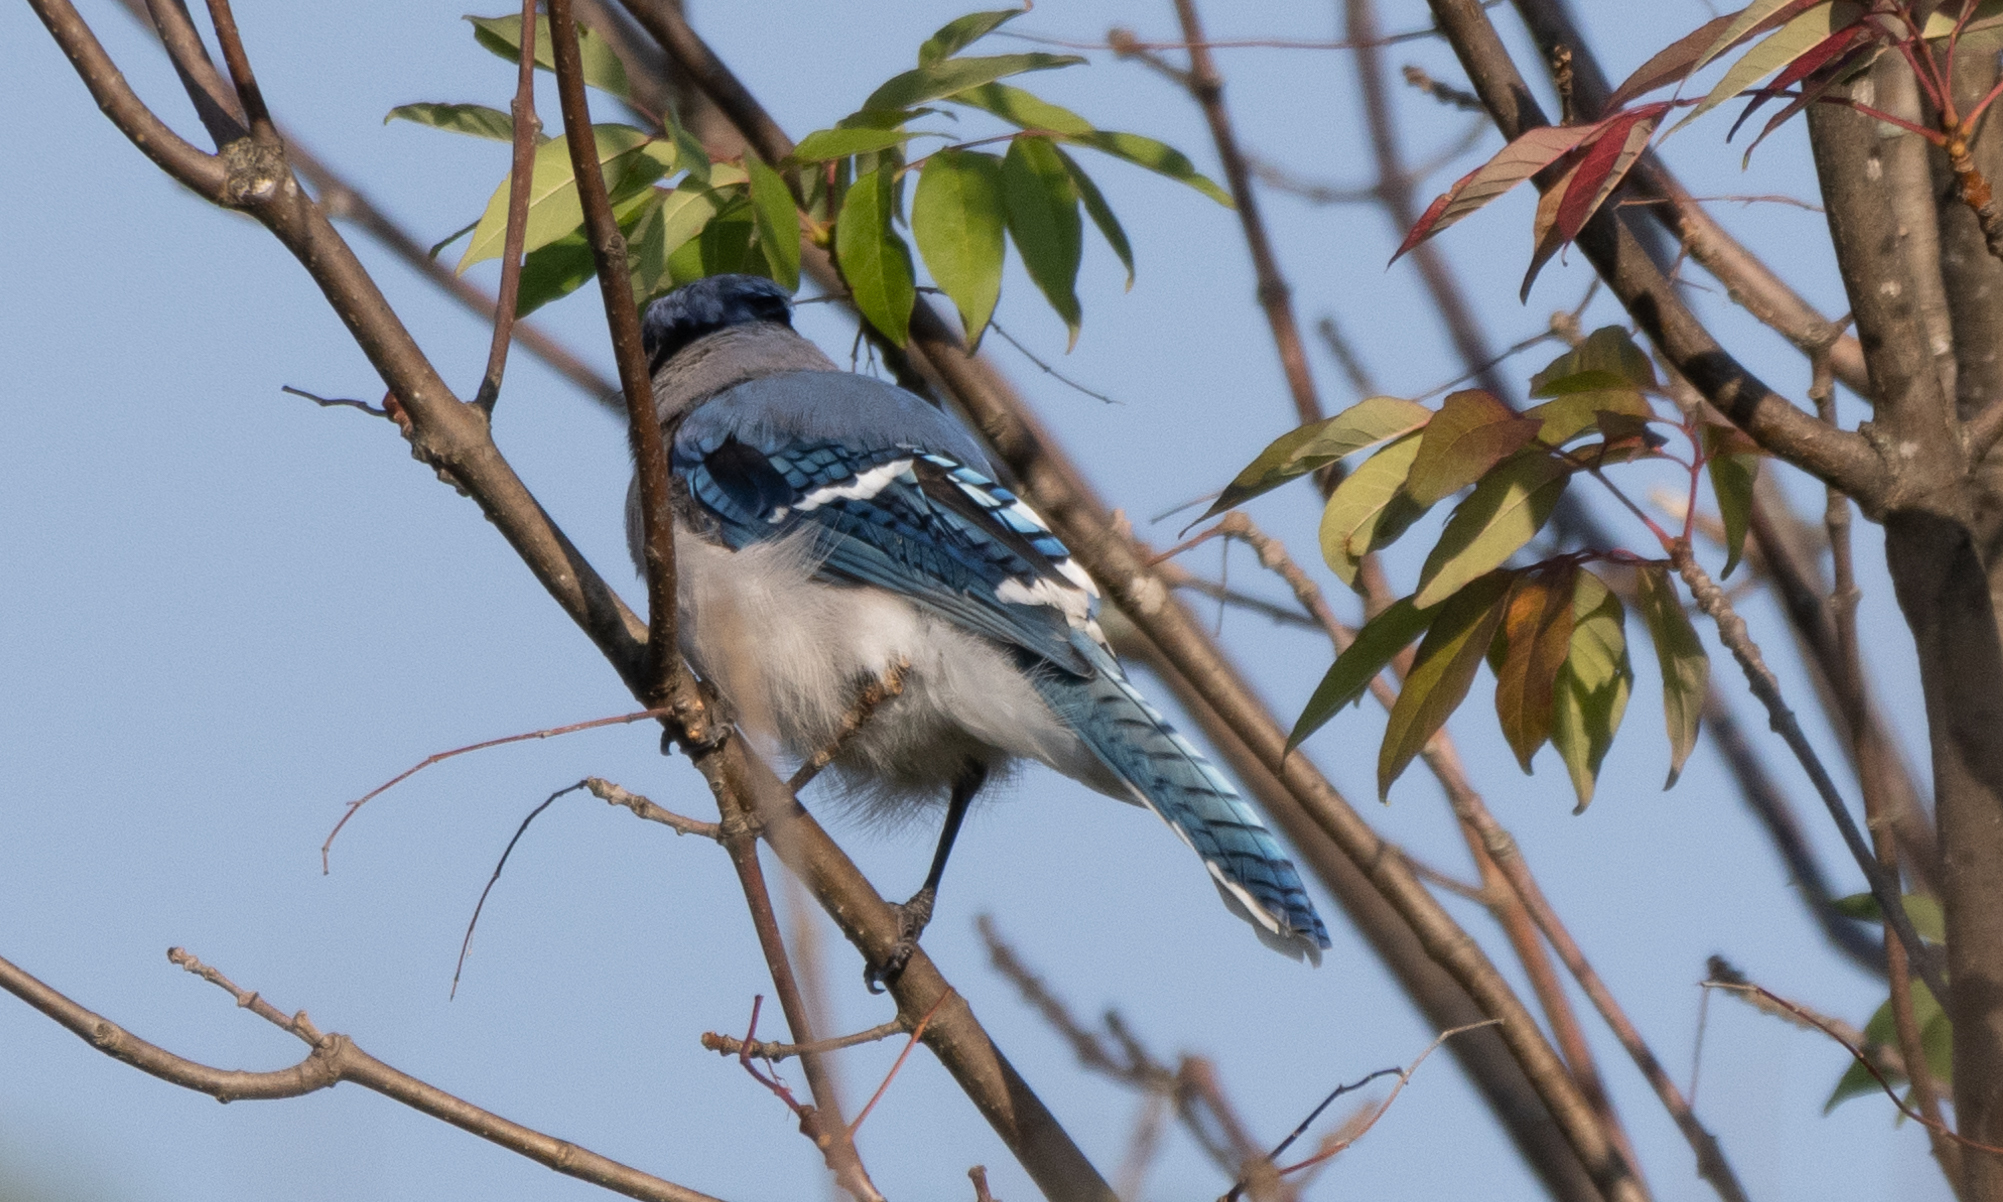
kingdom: Animalia
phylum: Chordata
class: Aves
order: Passeriformes
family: Corvidae
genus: Cyanocitta
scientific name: Cyanocitta cristata
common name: Blue jay
